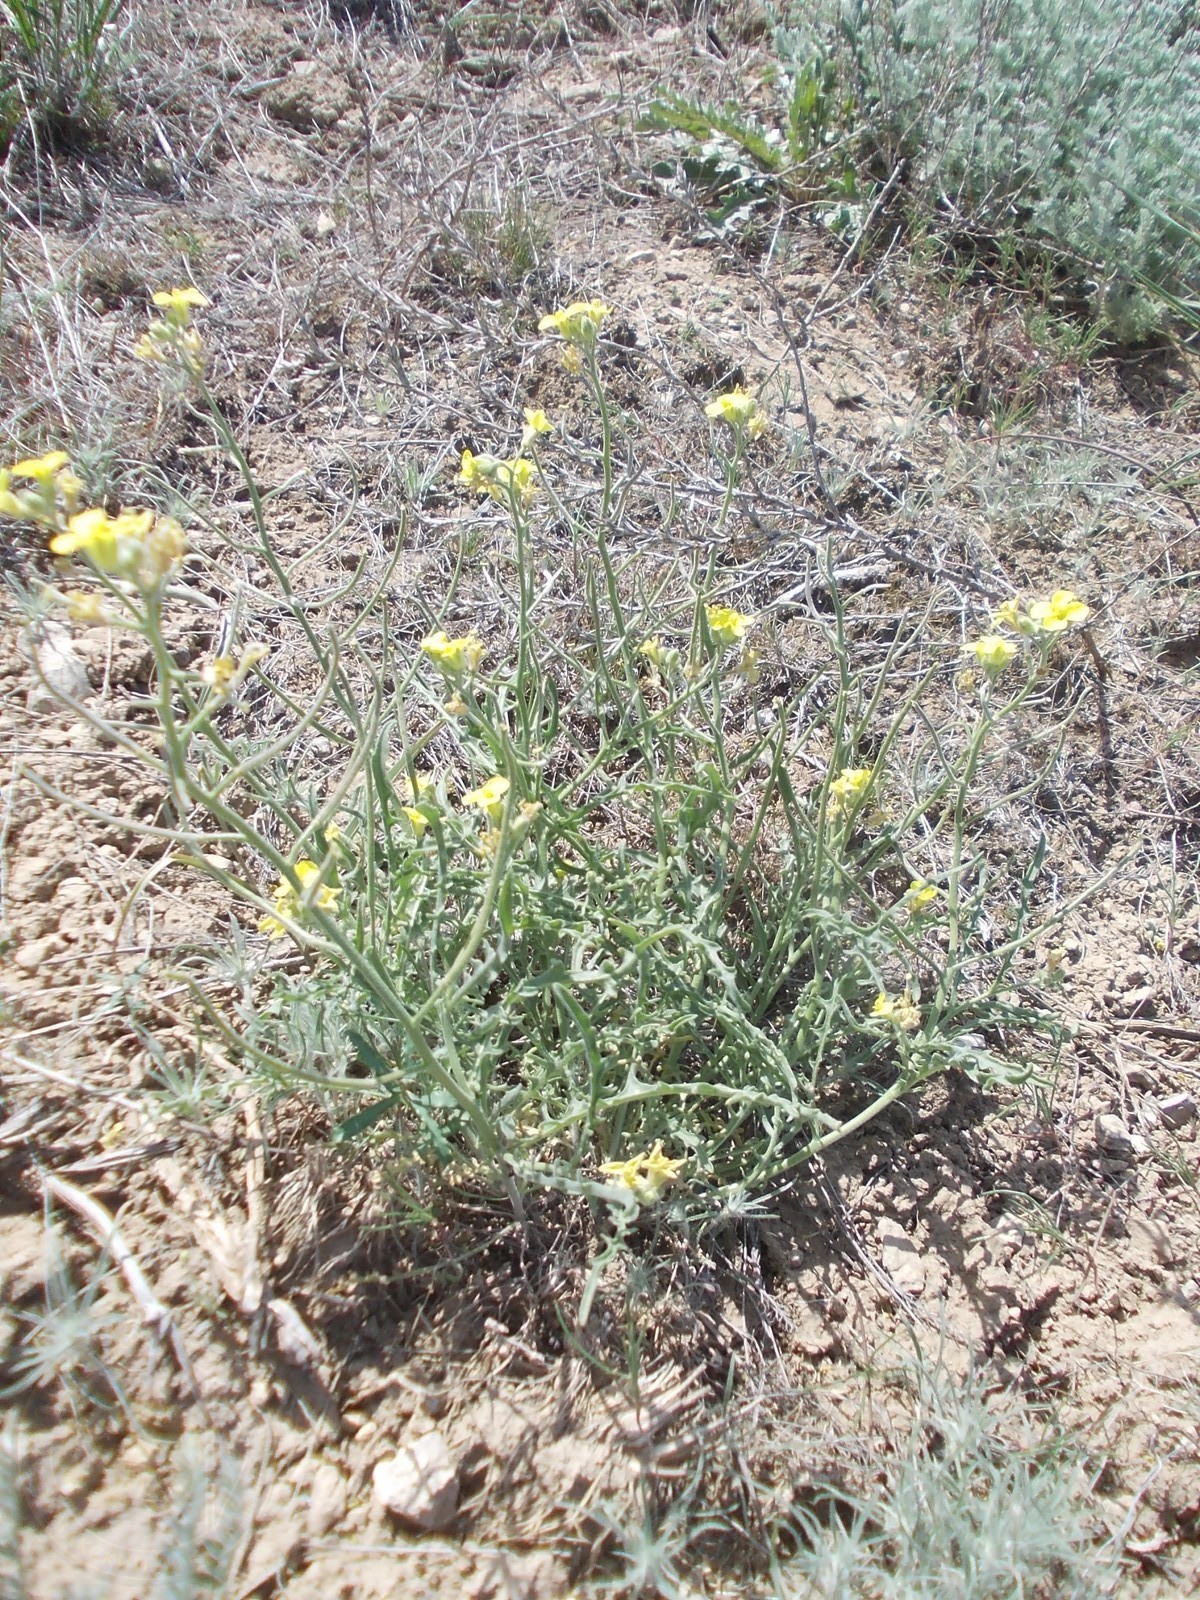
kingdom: Plantae
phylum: Tracheophyta
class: Magnoliopsida
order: Brassicales
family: Brassicaceae
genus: Sterigmostemum
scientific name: Sterigmostemum caspicum
